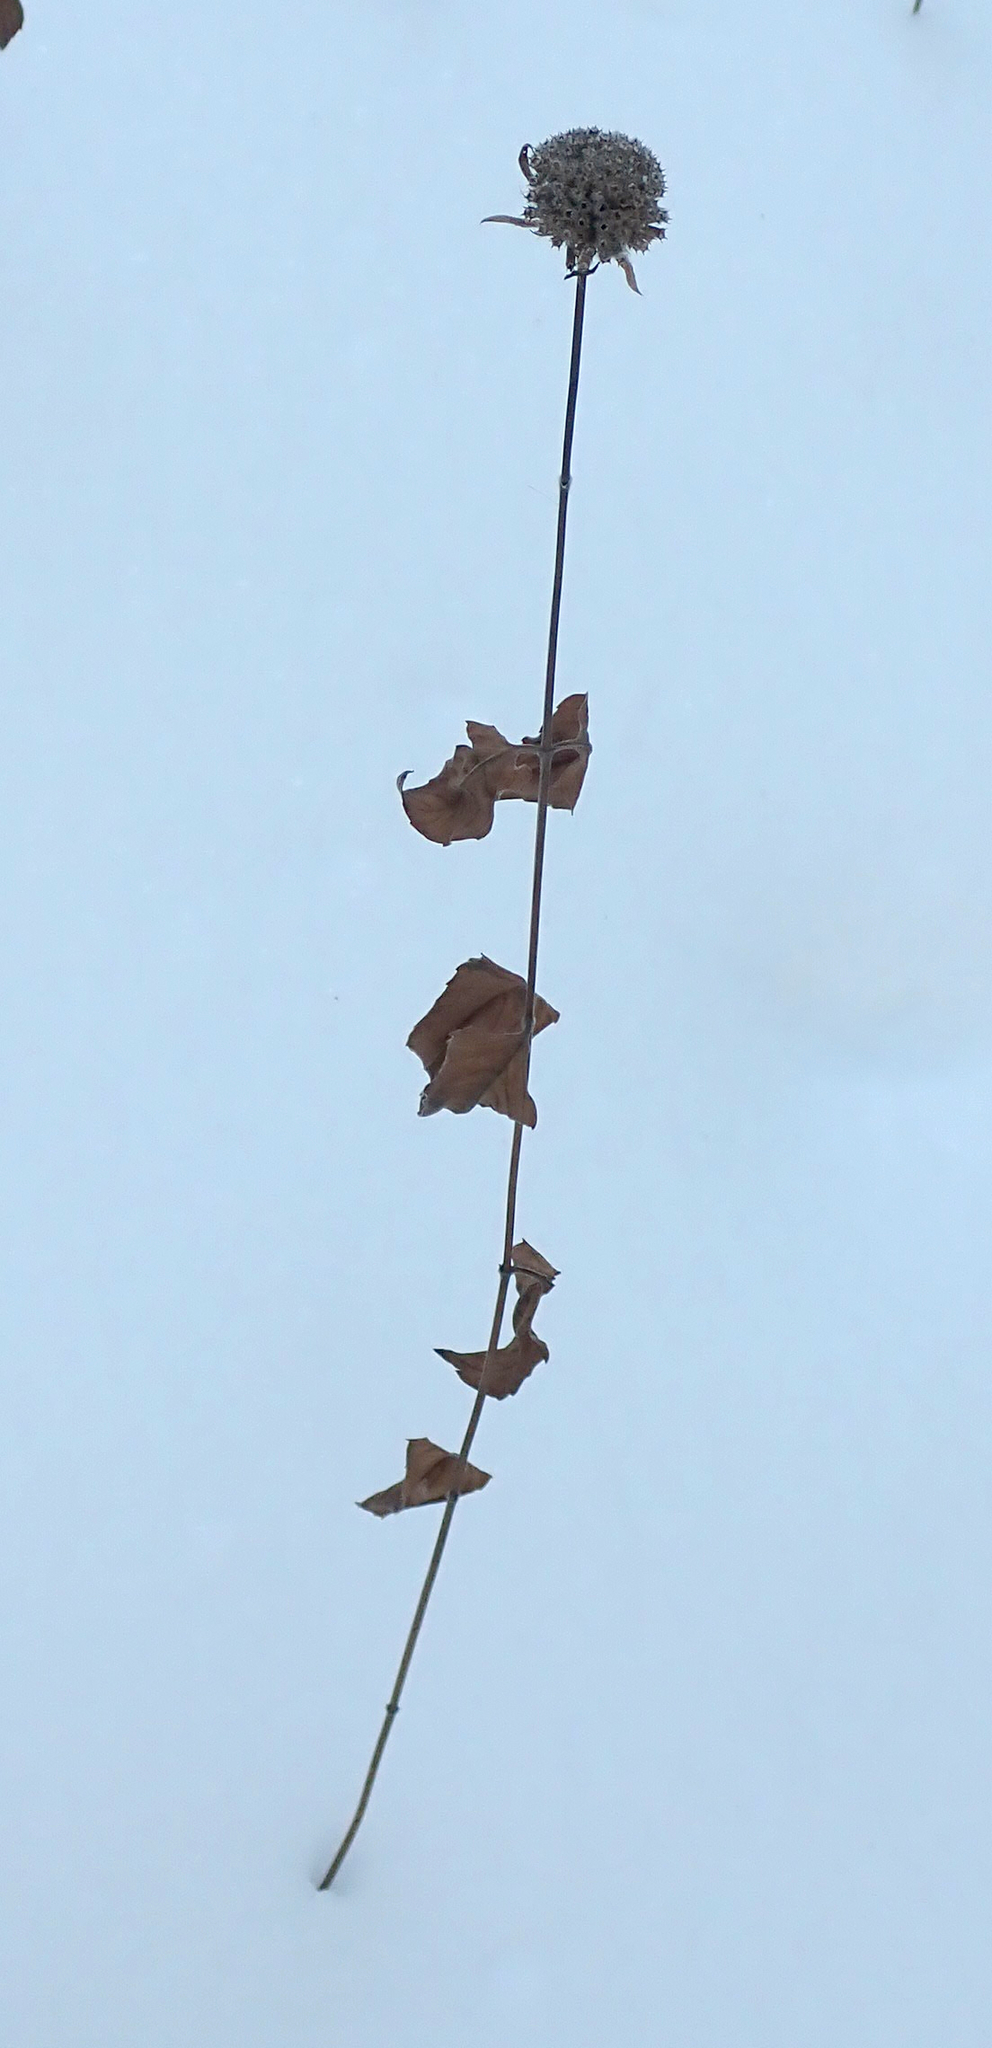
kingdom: Plantae
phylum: Tracheophyta
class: Magnoliopsida
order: Lamiales
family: Lamiaceae
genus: Monarda
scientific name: Monarda fistulosa
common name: Purple beebalm
